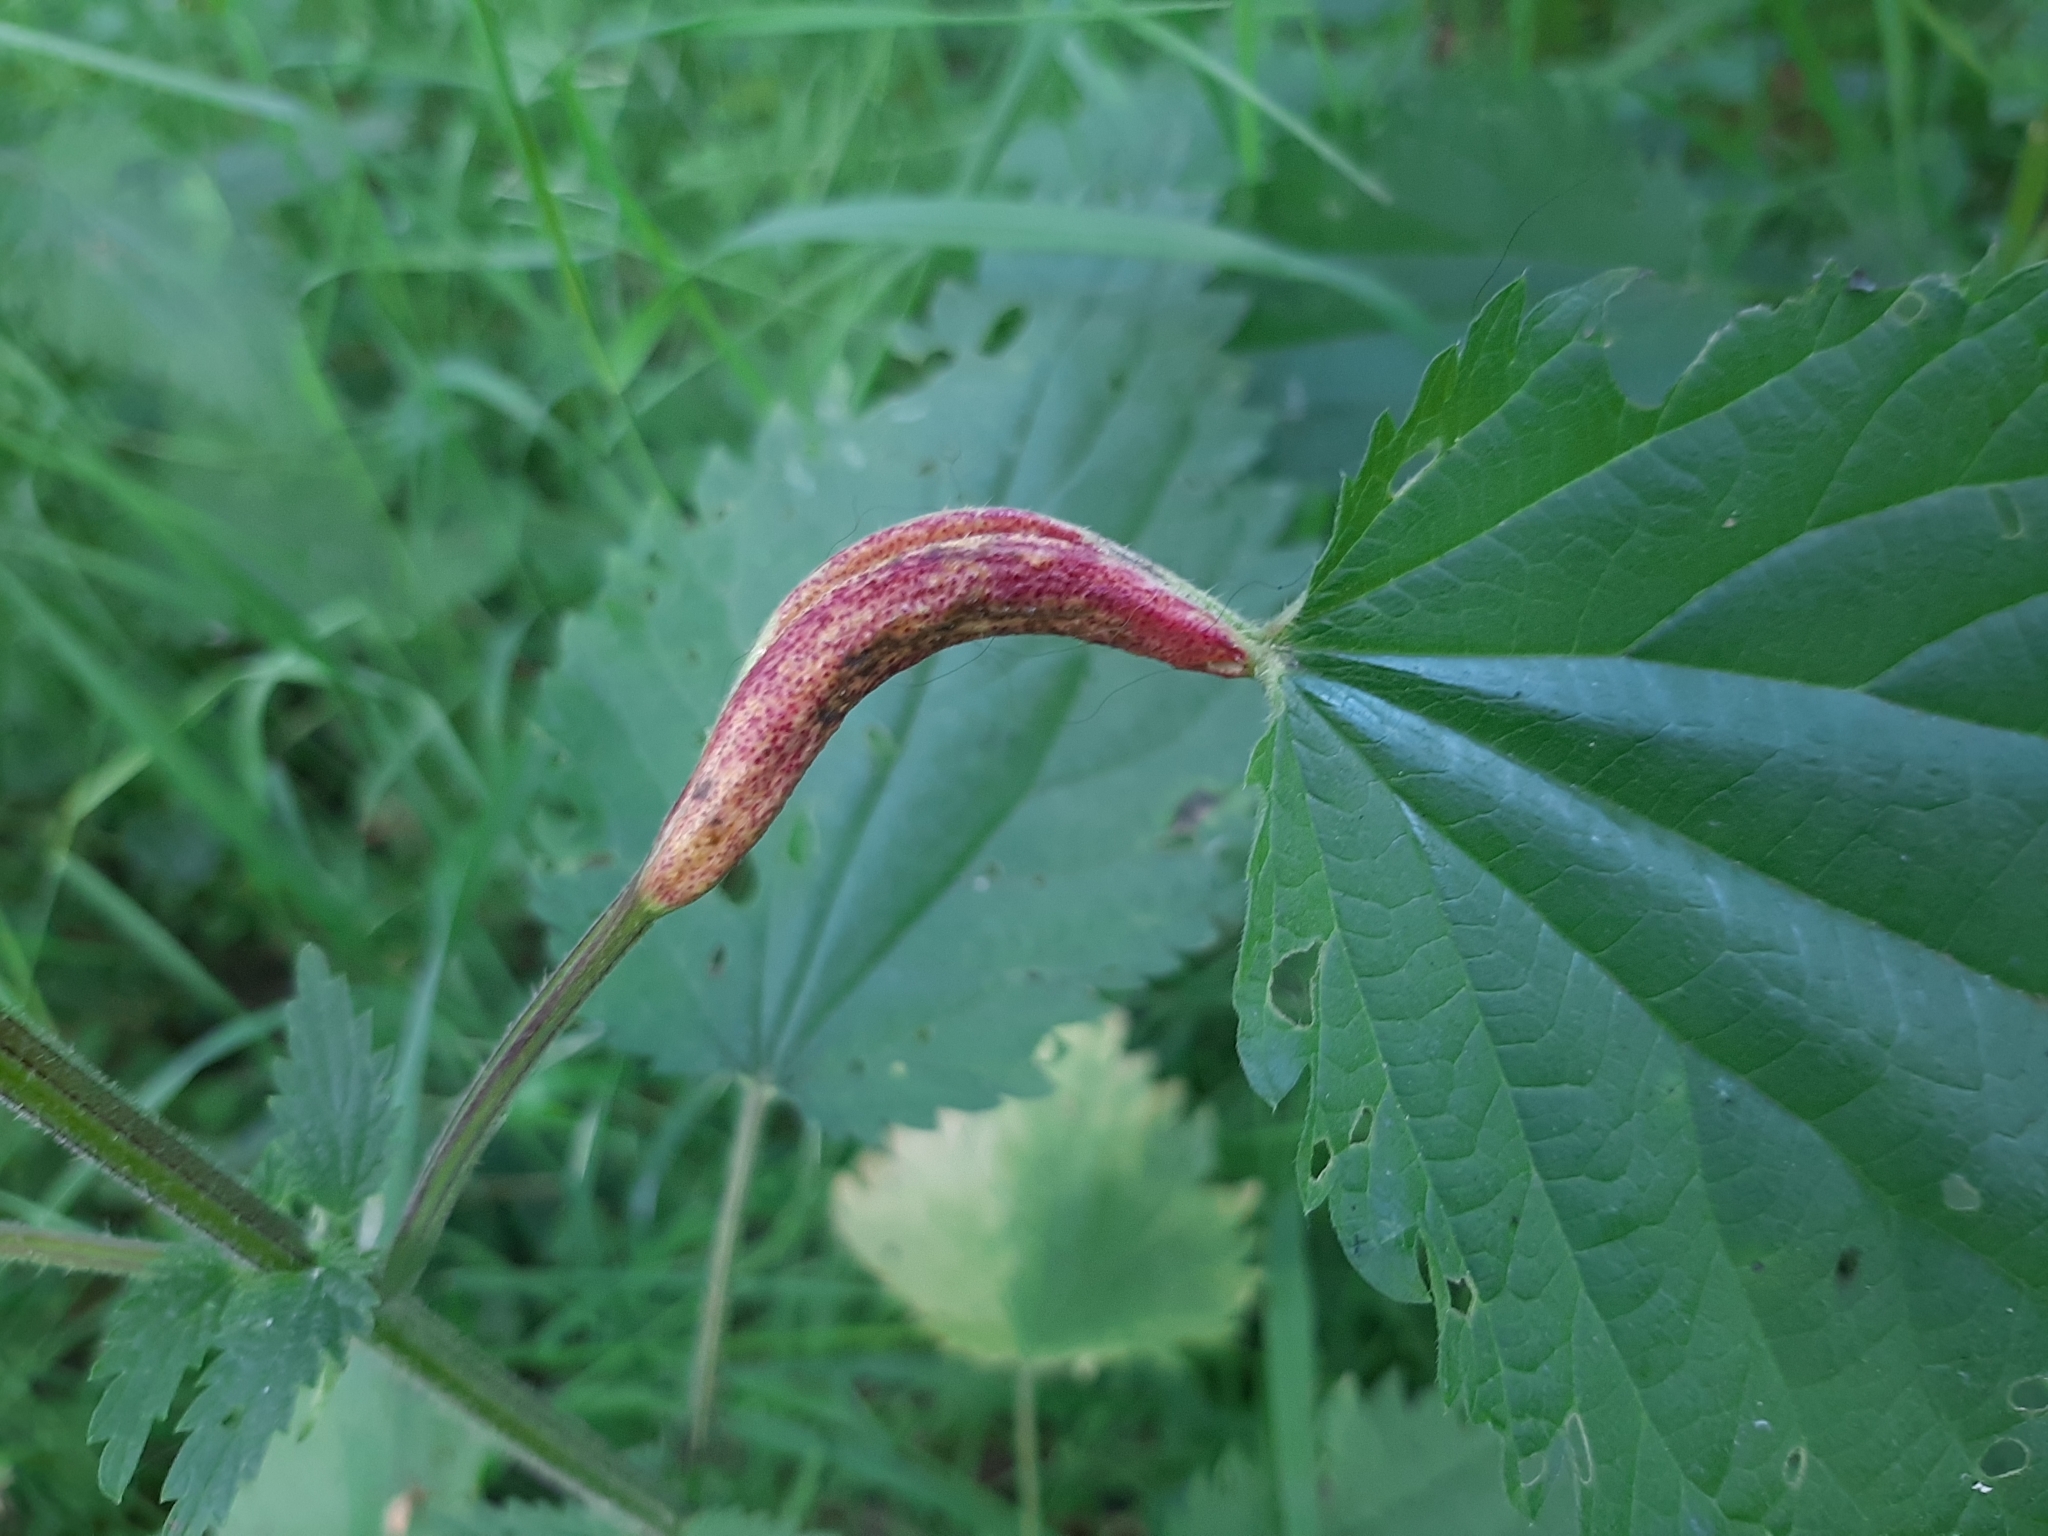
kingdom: Fungi
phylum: Basidiomycota
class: Pucciniomycetes
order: Pucciniales
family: Pucciniaceae
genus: Puccinia
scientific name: Puccinia urticata
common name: Nettle clustercup rust fungus
